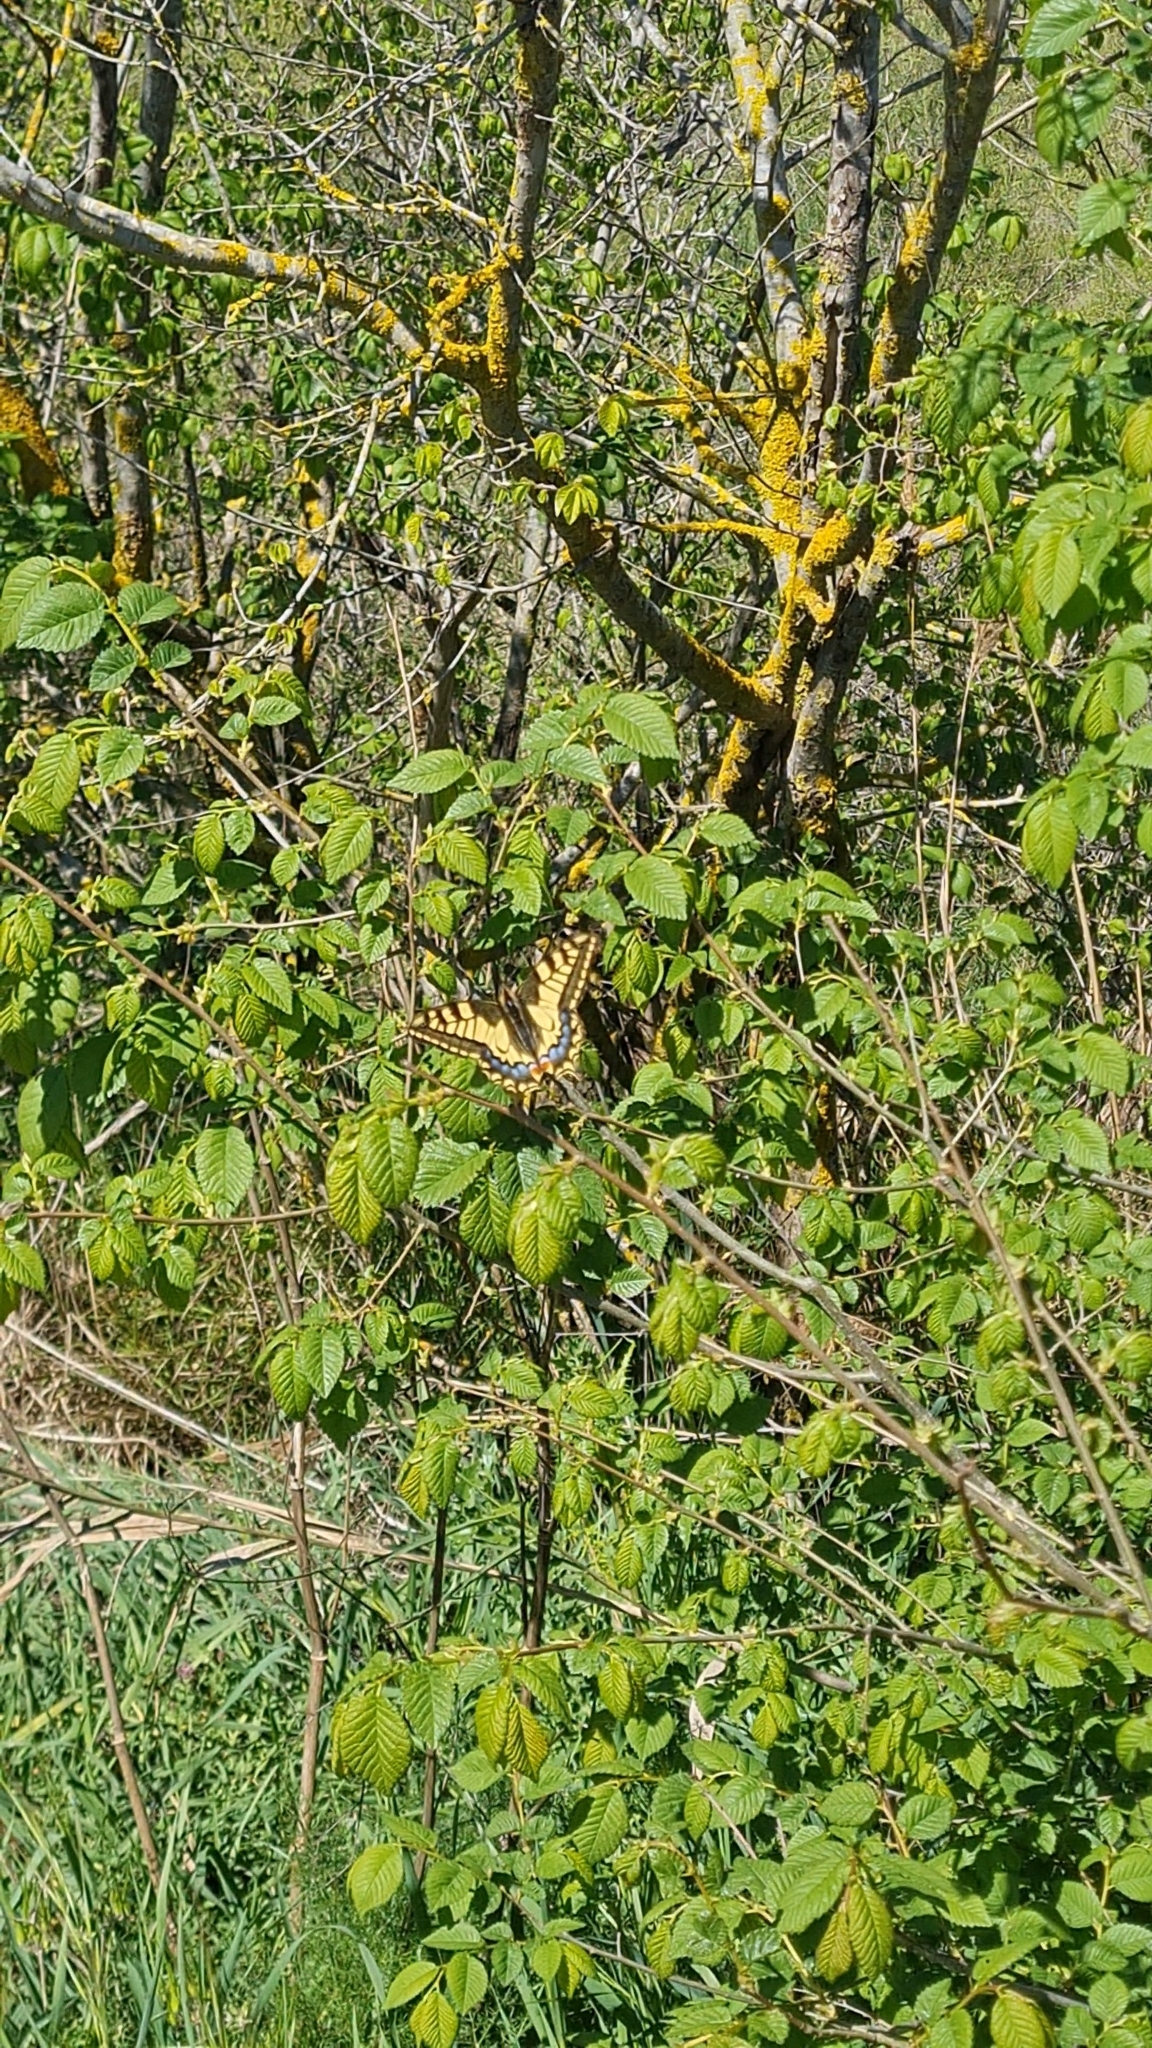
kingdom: Animalia
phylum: Arthropoda
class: Insecta
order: Lepidoptera
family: Papilionidae
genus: Papilio
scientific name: Papilio machaon
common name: Swallowtail
